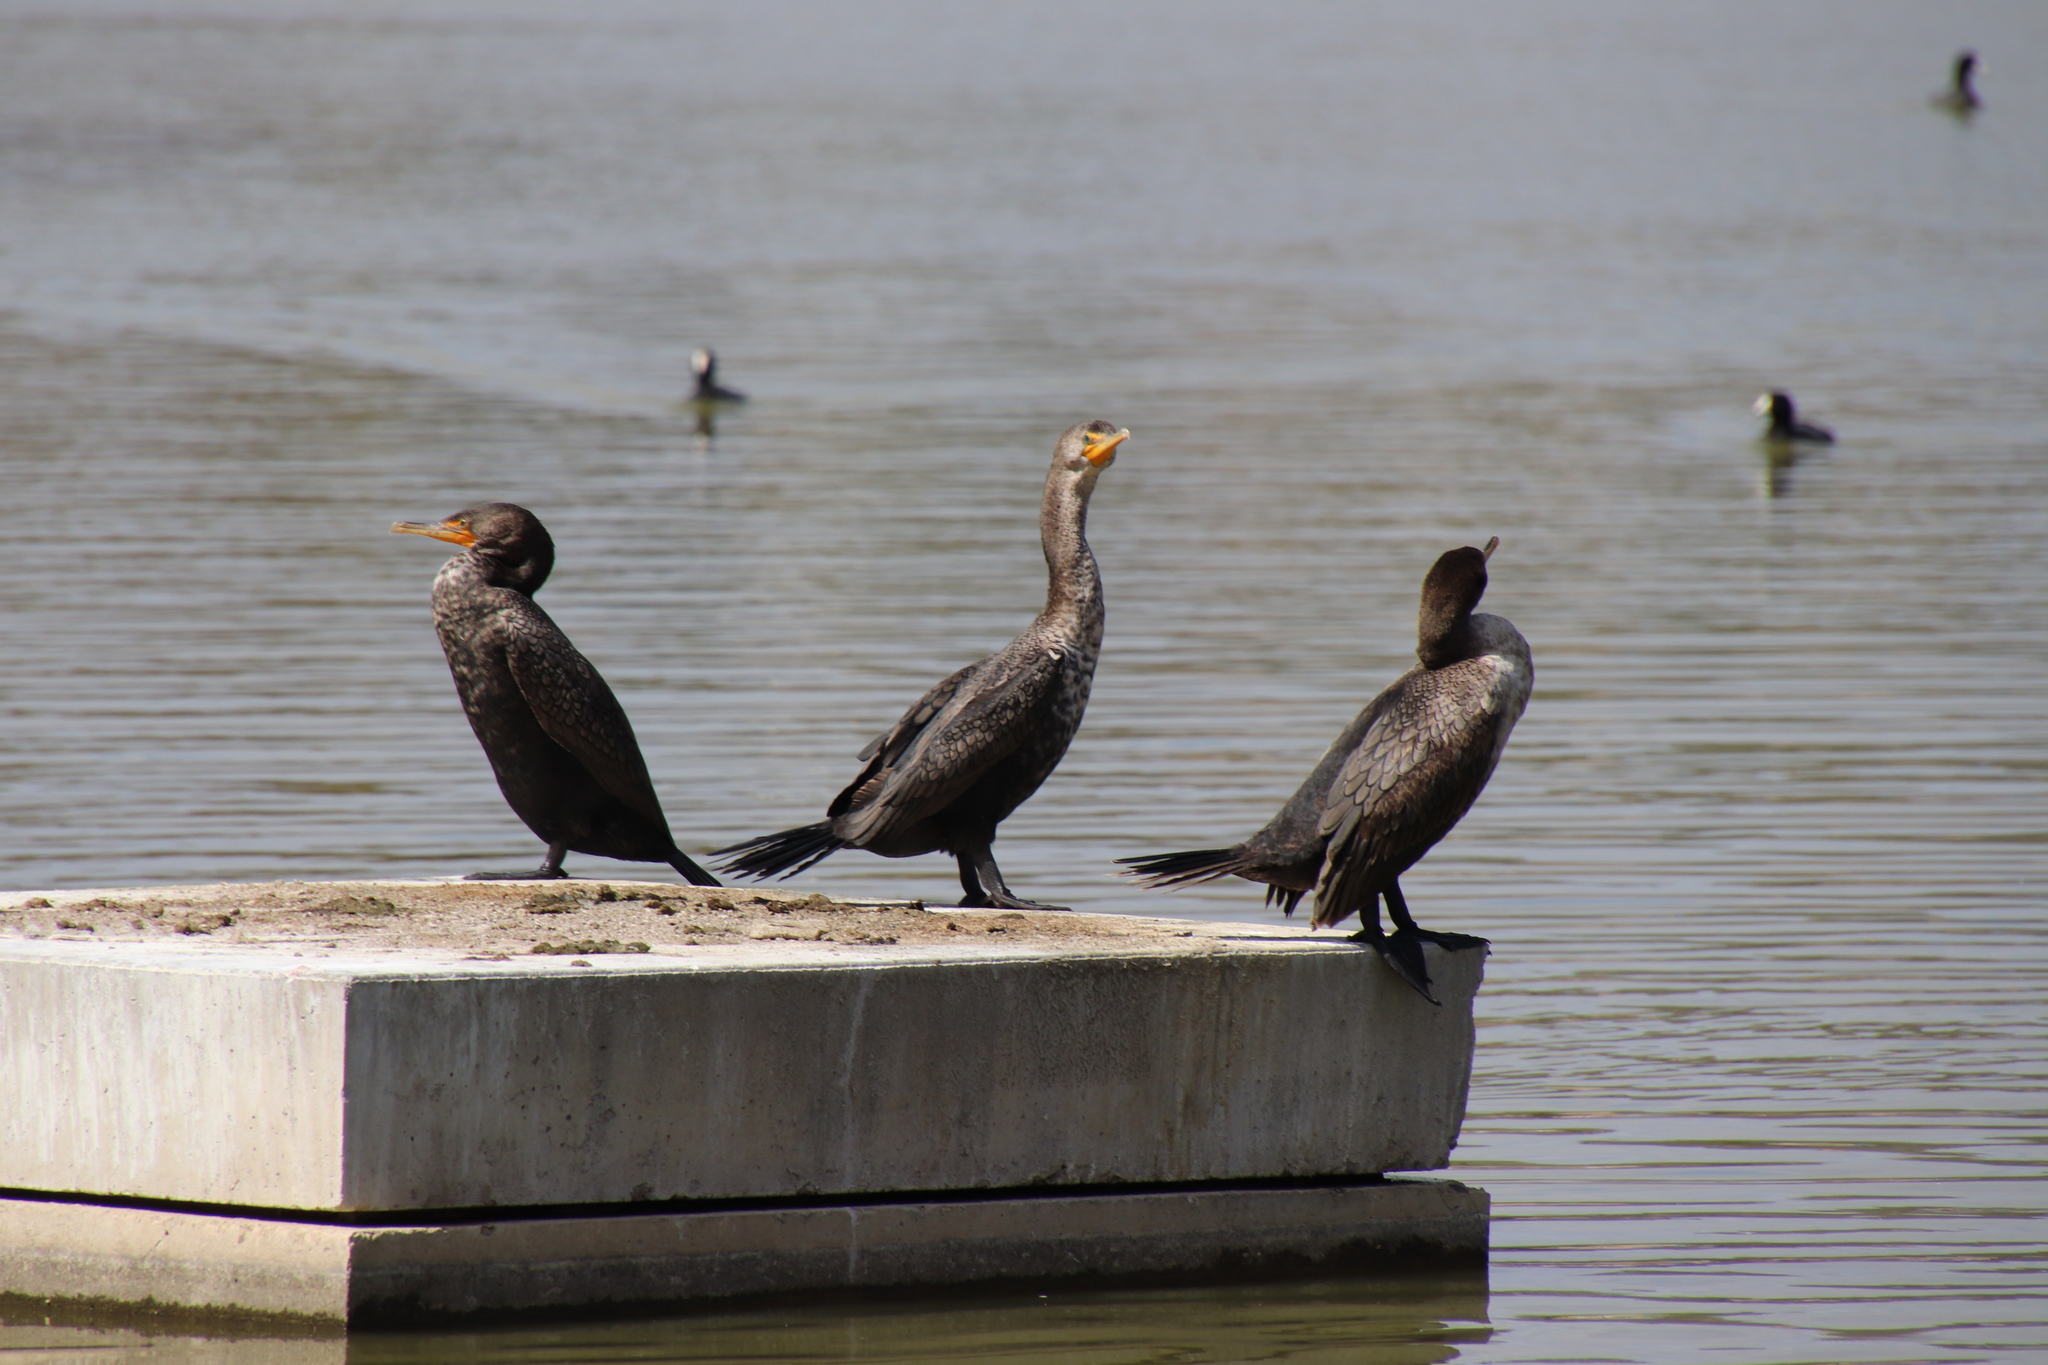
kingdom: Animalia
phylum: Chordata
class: Aves
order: Suliformes
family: Phalacrocoracidae
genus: Phalacrocorax
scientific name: Phalacrocorax auritus
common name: Double-crested cormorant
